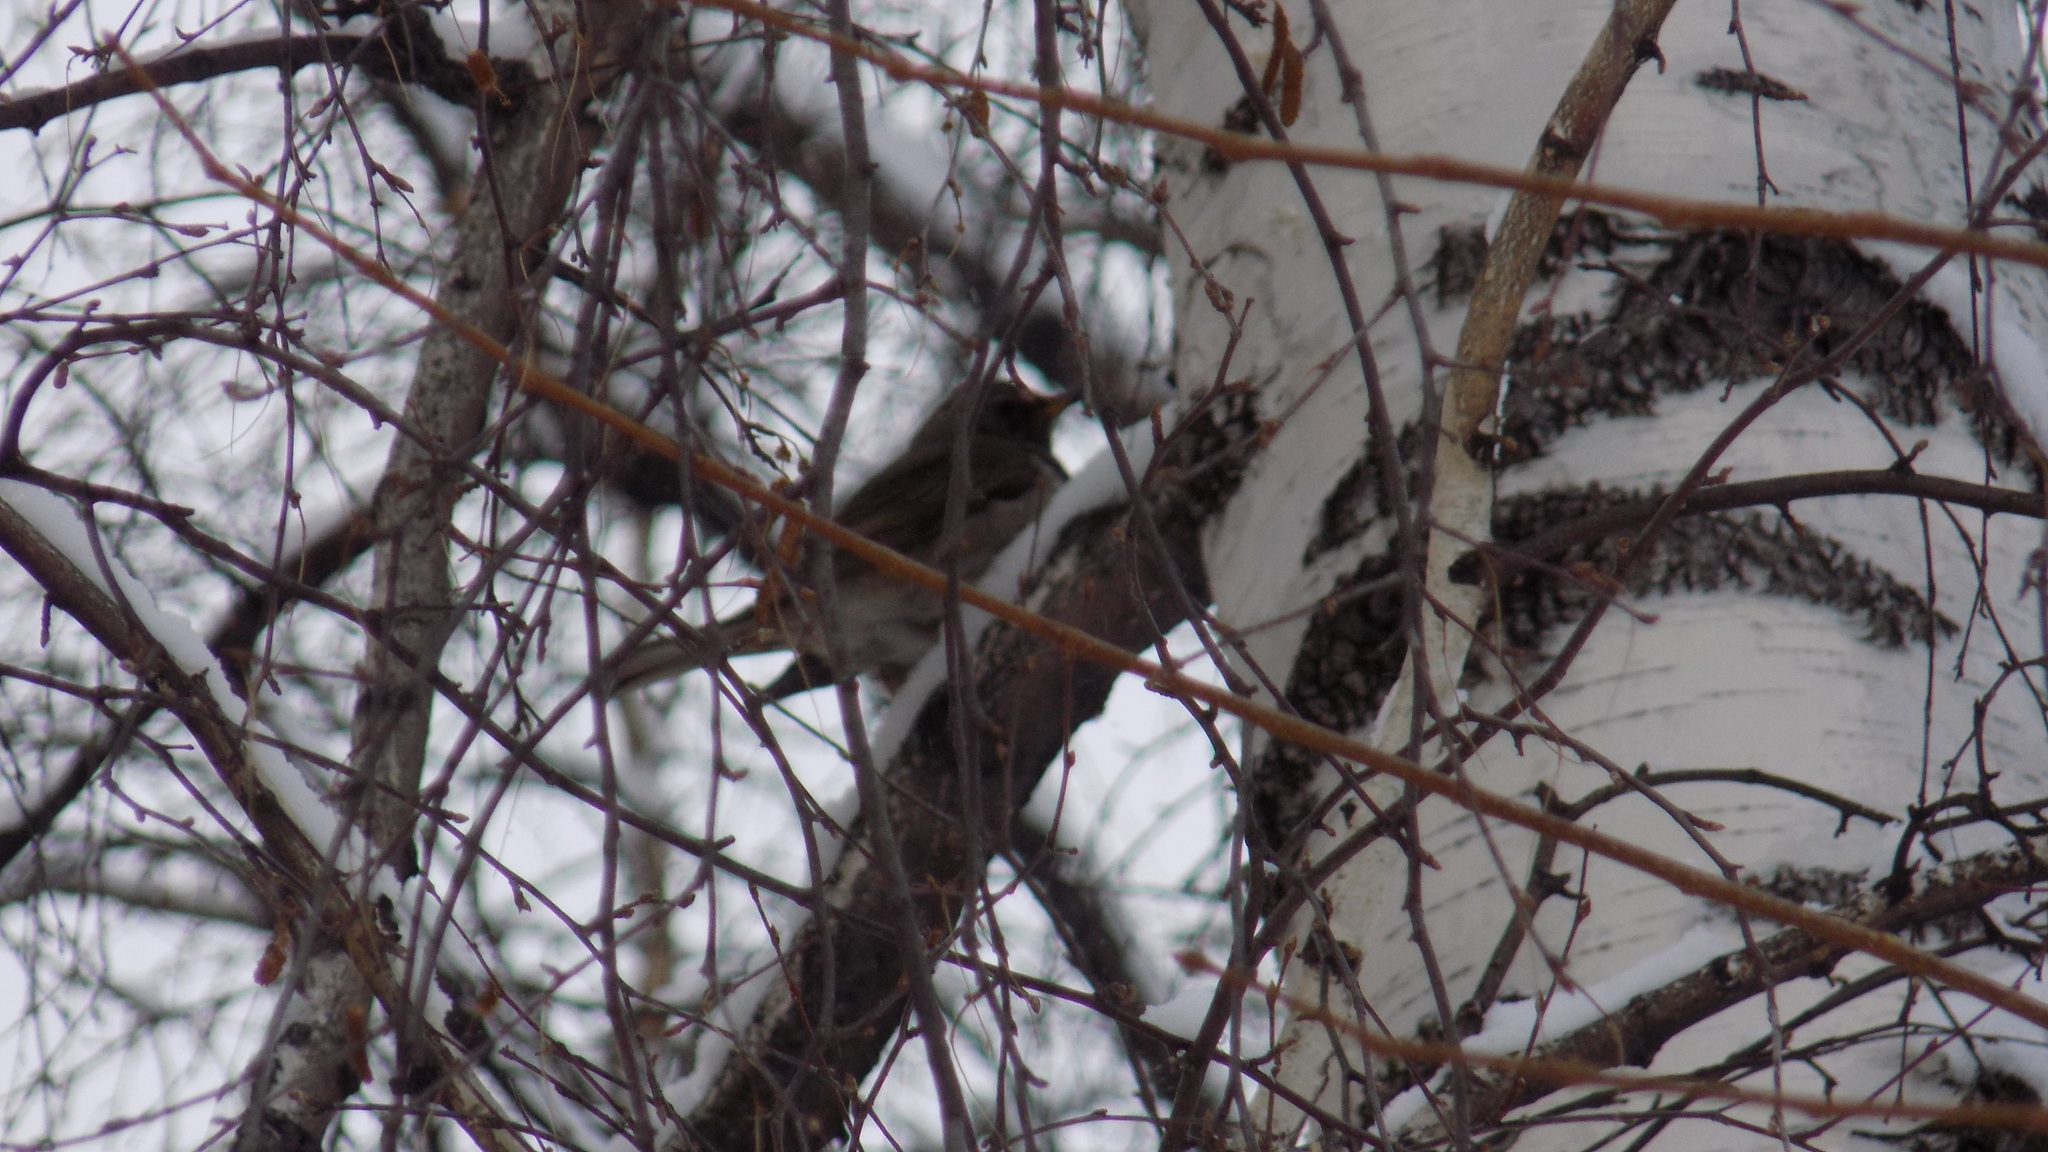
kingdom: Animalia
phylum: Chordata
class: Aves
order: Passeriformes
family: Turdidae
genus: Turdus
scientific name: Turdus atrogularis
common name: Black-throated thrush
